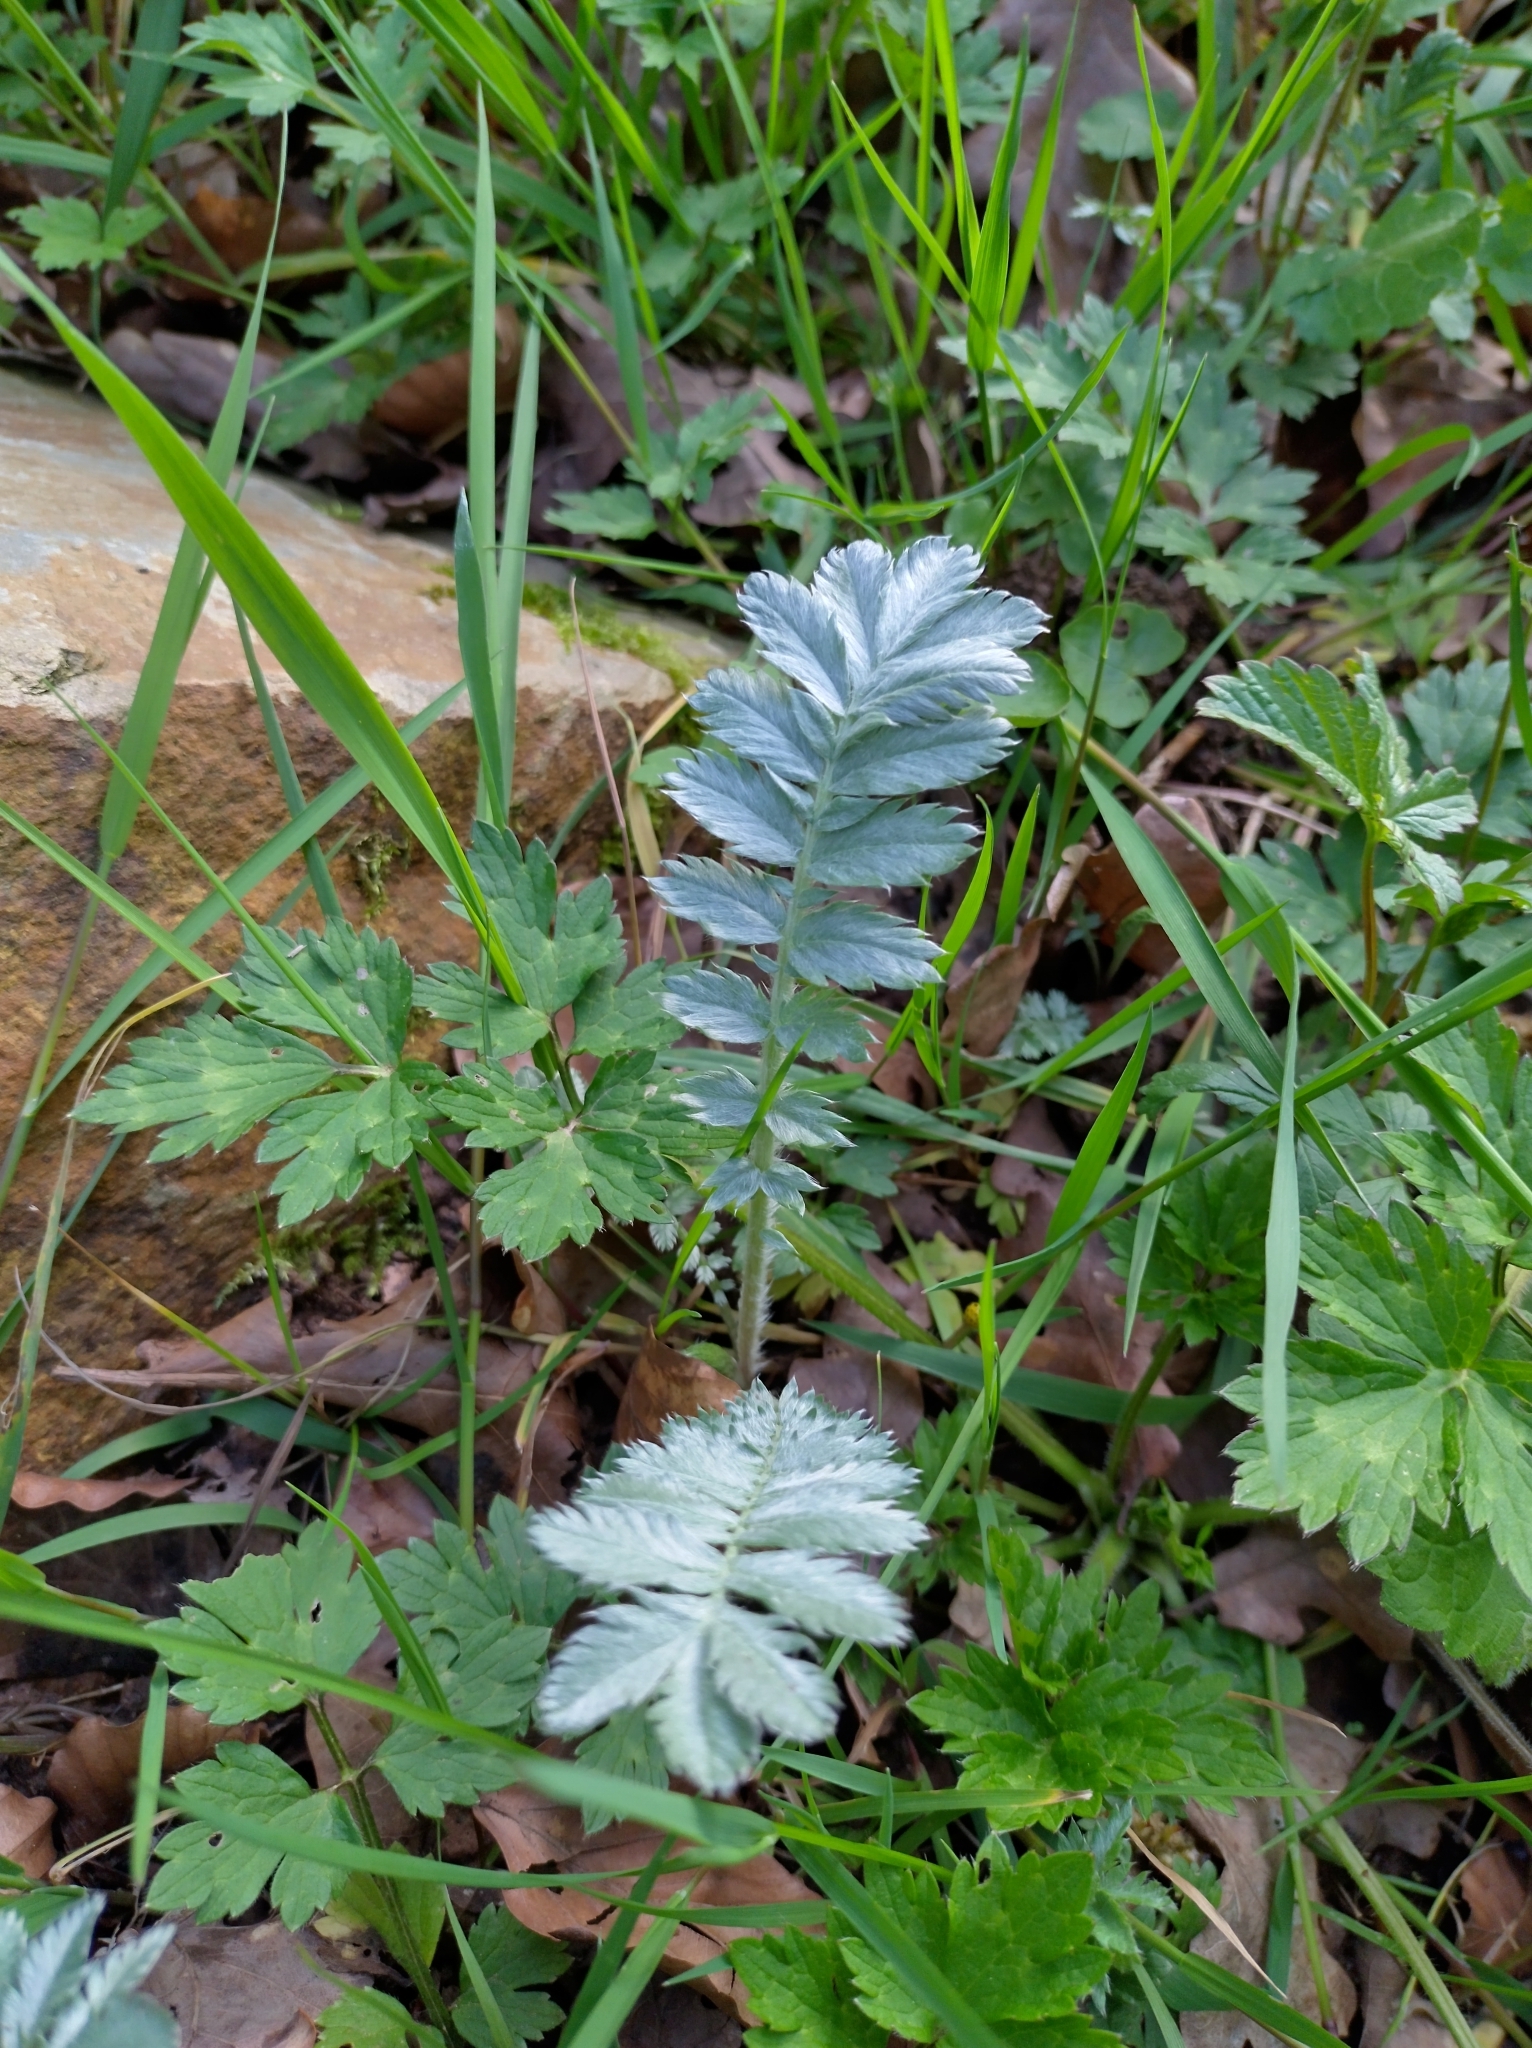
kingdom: Plantae
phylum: Tracheophyta
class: Magnoliopsida
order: Rosales
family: Rosaceae
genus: Argentina
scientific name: Argentina anserina
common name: Common silverweed
